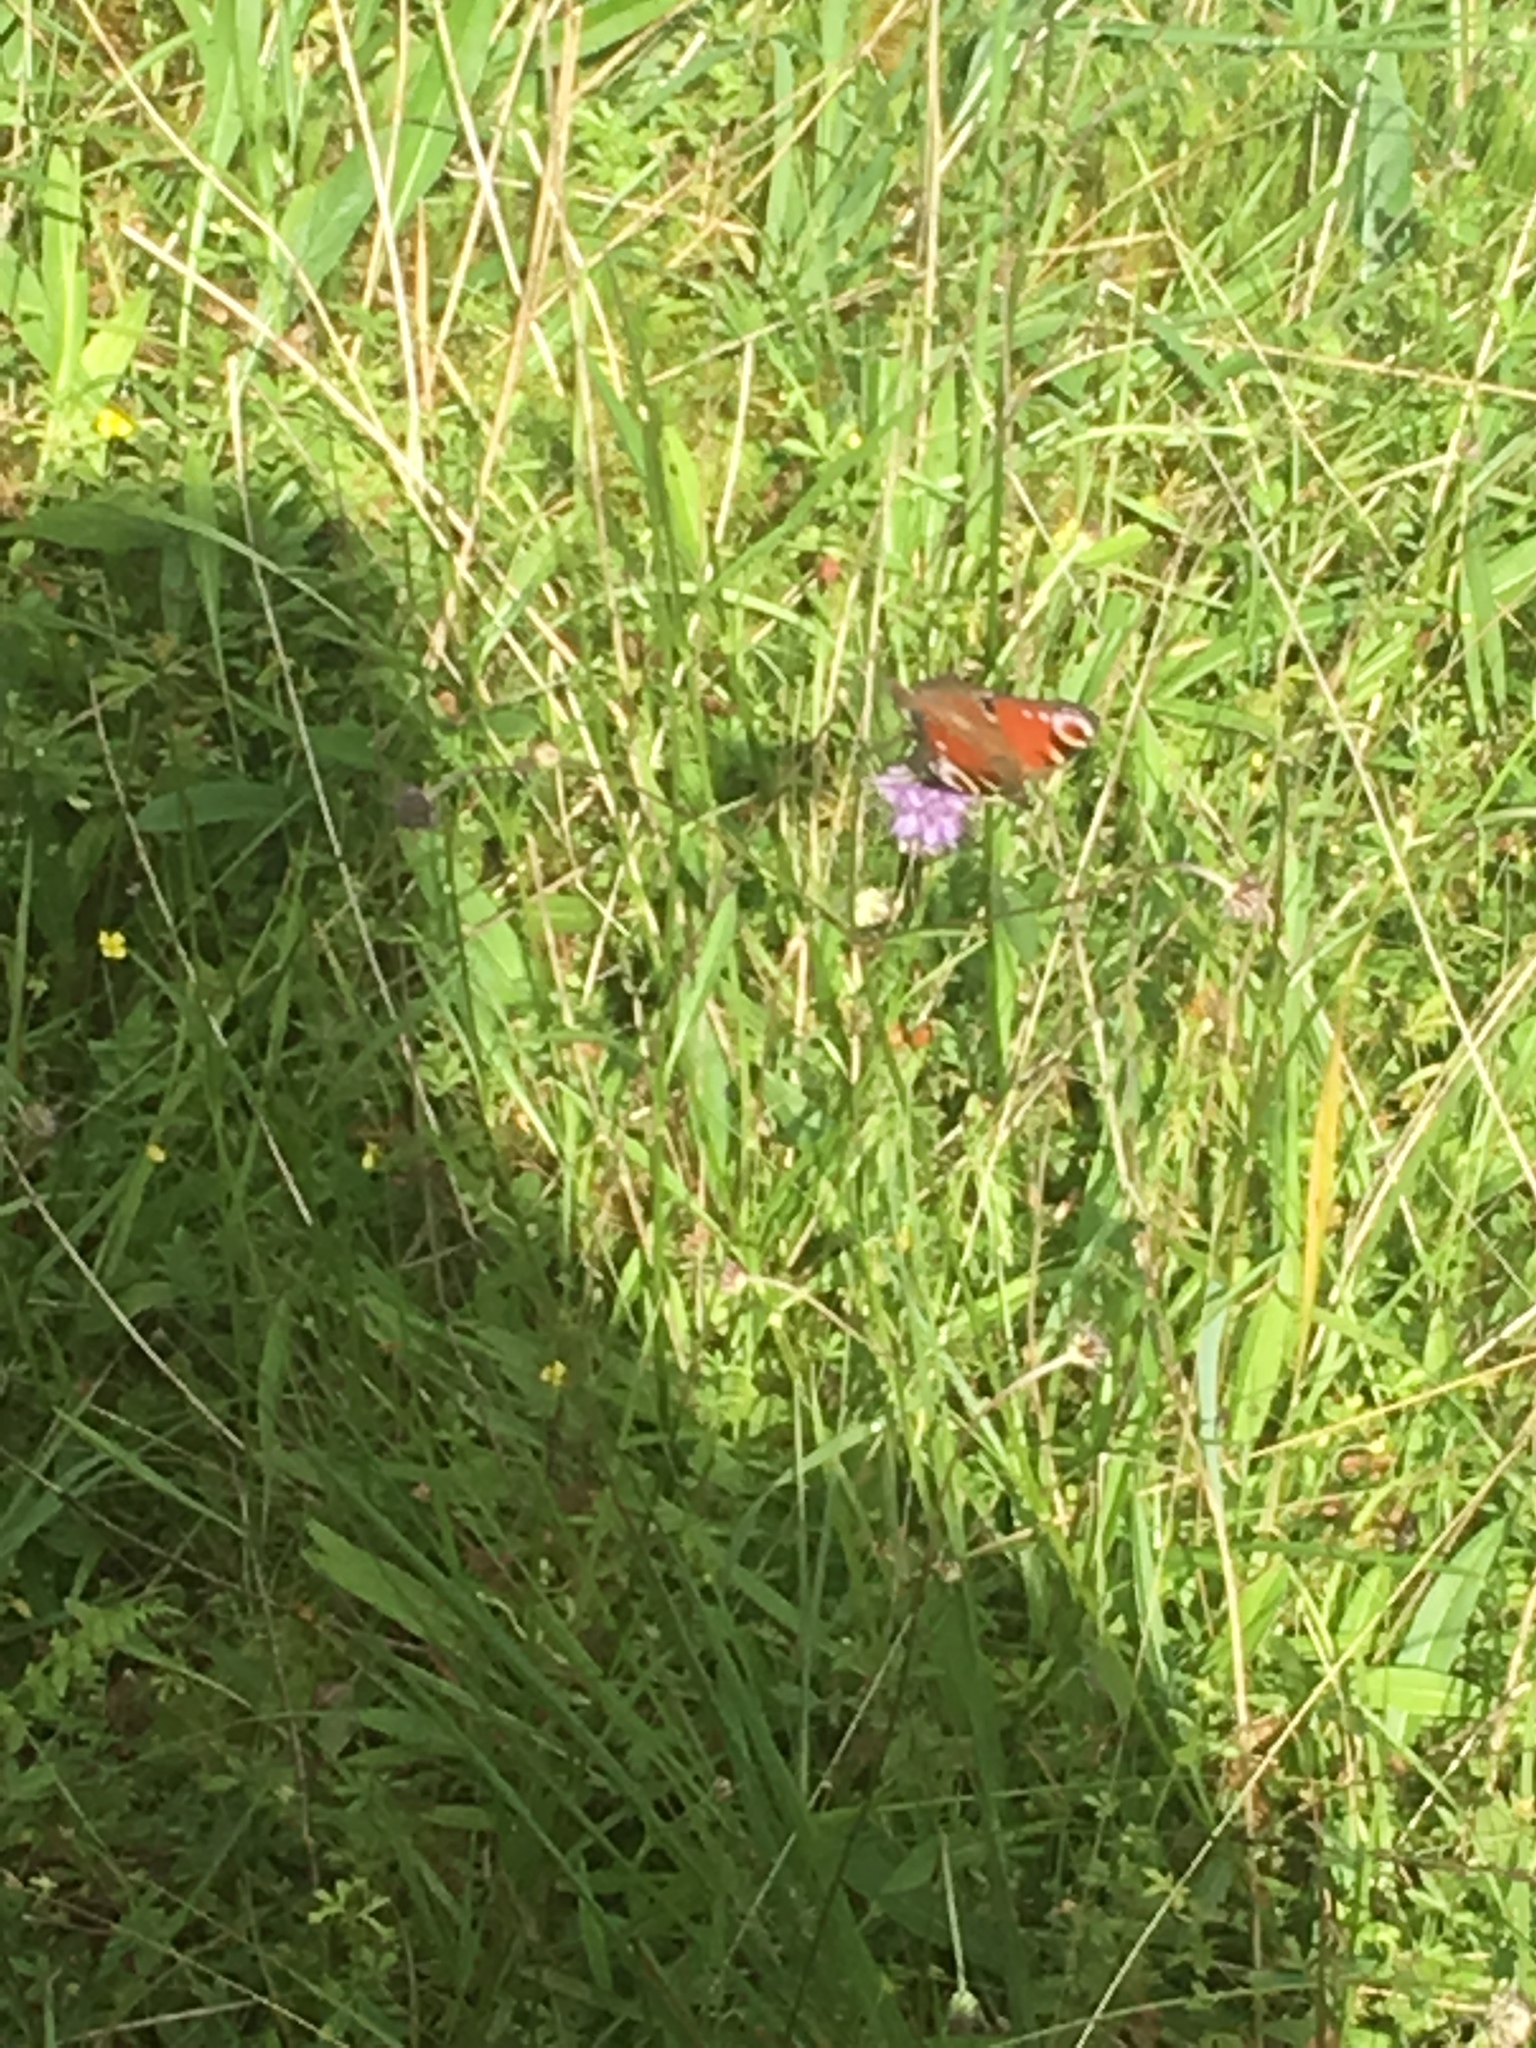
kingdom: Animalia
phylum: Arthropoda
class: Insecta
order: Lepidoptera
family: Nymphalidae
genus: Aglais
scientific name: Aglais io
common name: Peacock
